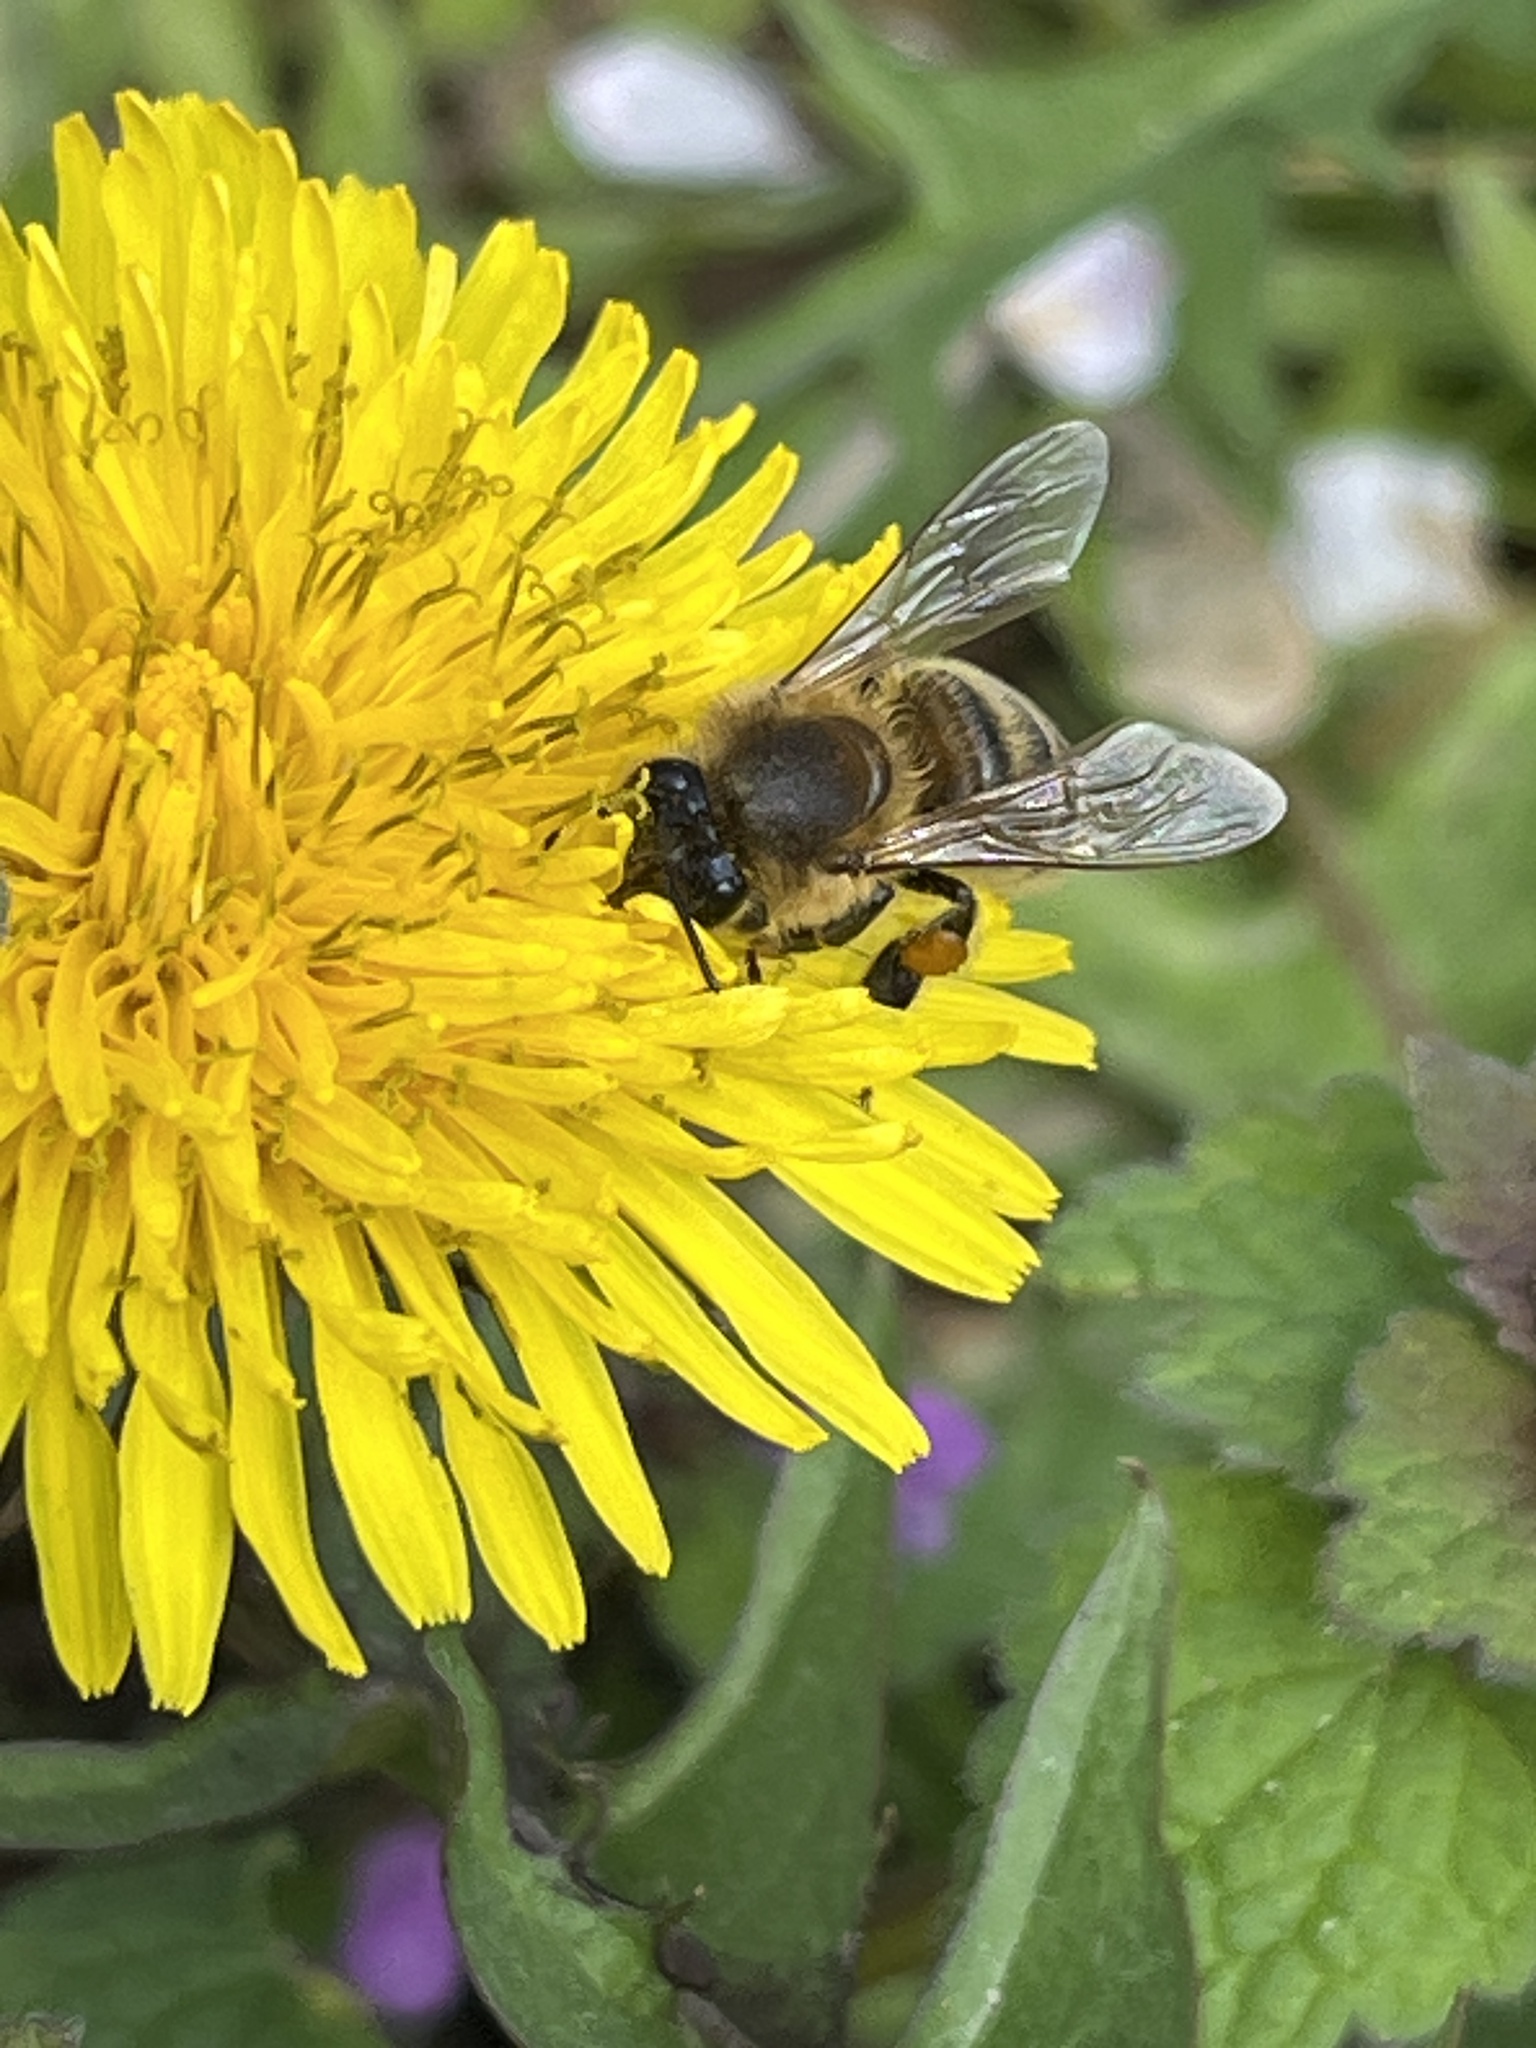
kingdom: Animalia
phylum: Arthropoda
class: Insecta
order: Hymenoptera
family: Apidae
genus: Apis
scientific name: Apis mellifera
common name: Honey bee
